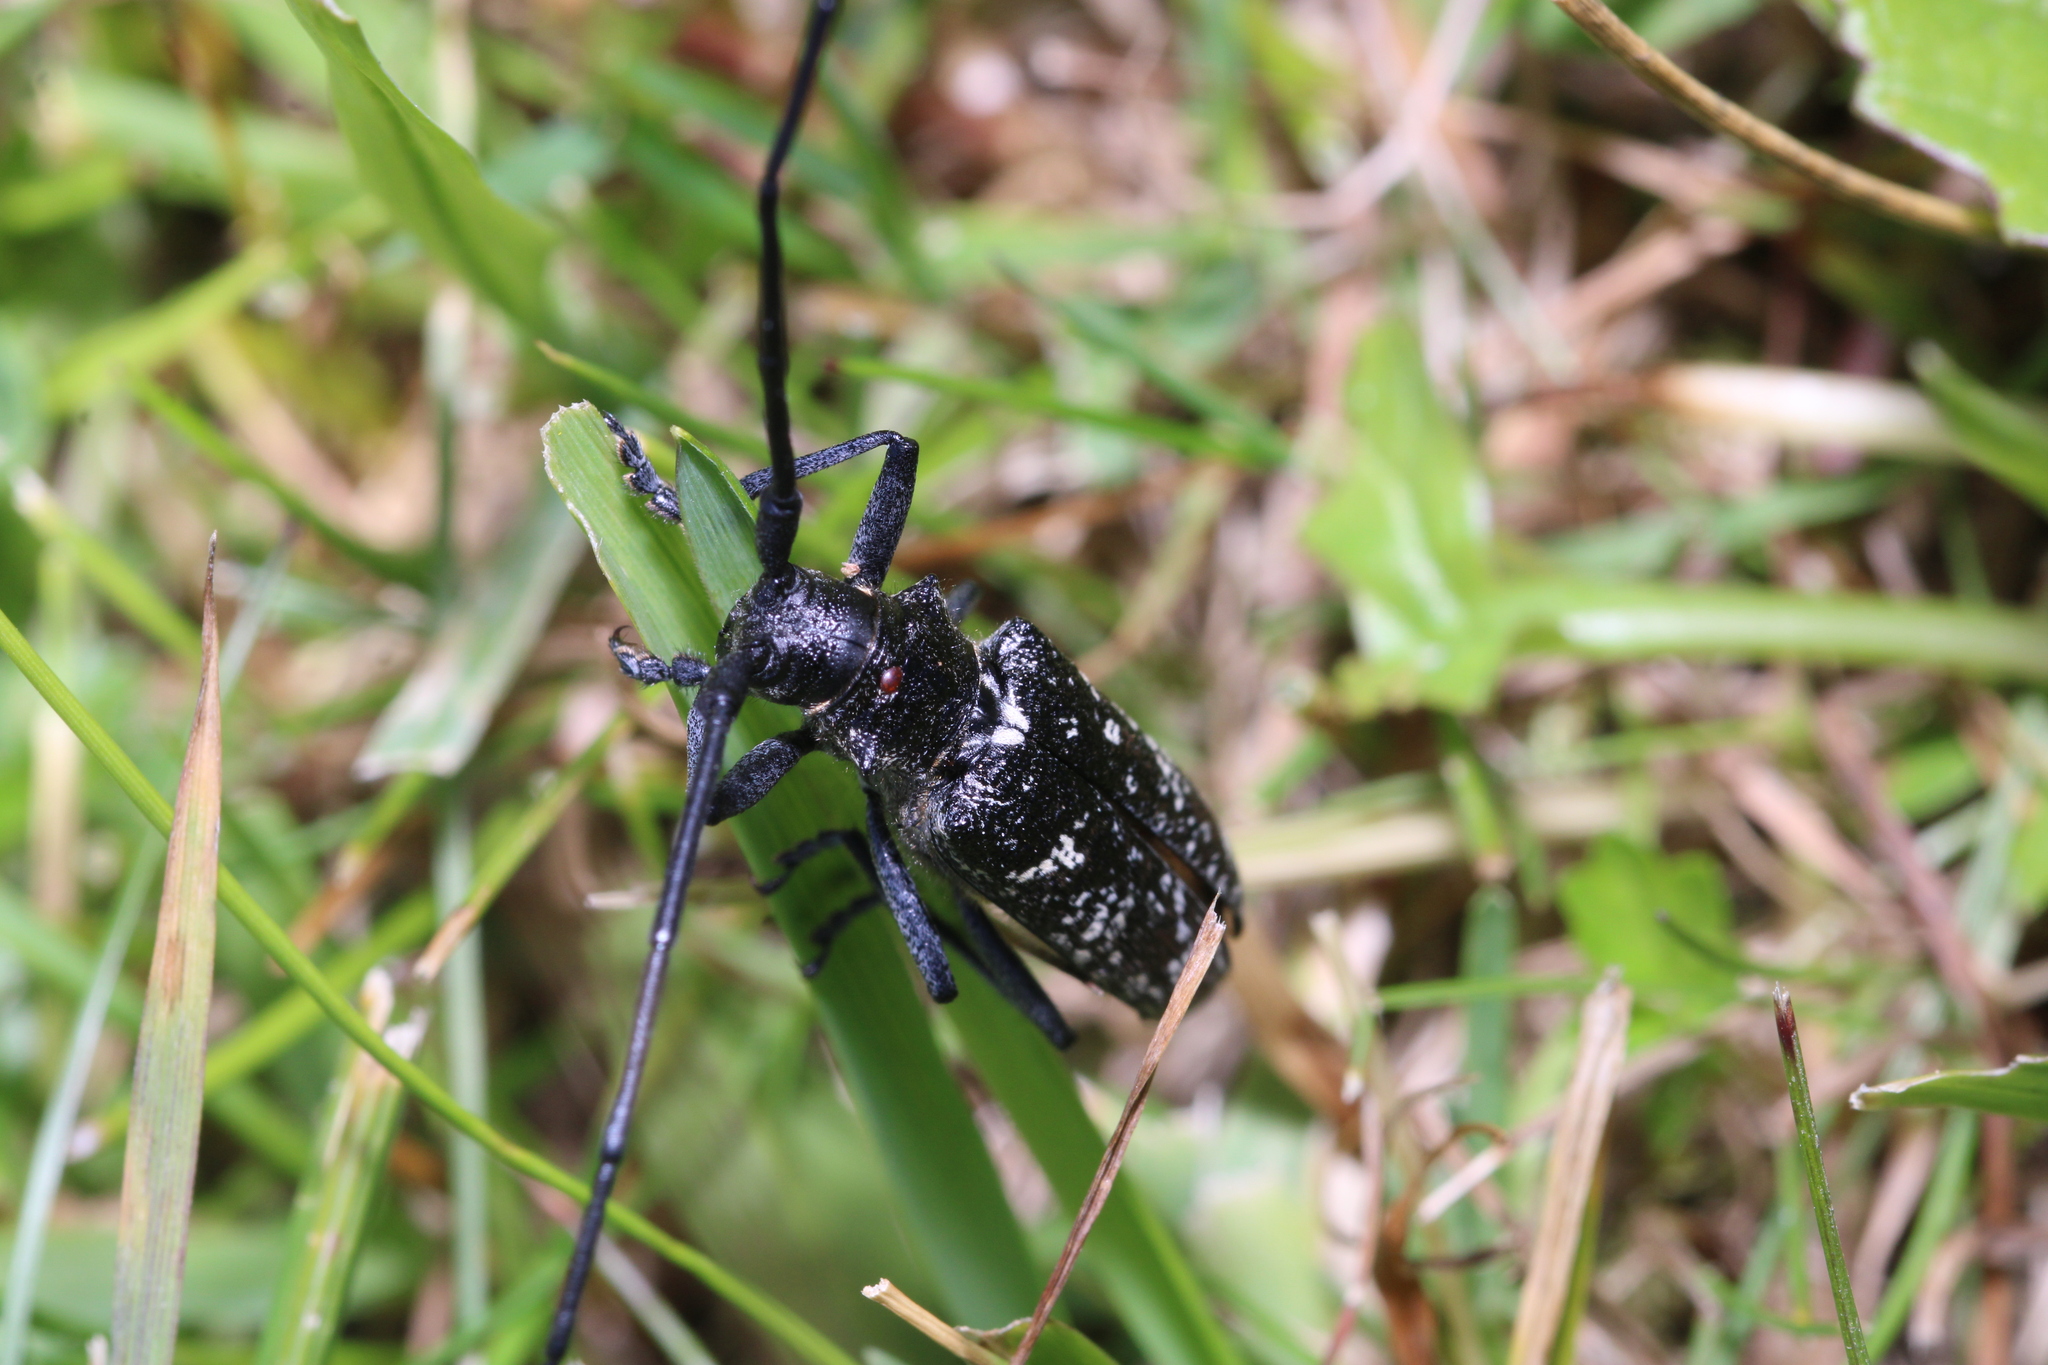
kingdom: Animalia
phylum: Arthropoda
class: Insecta
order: Coleoptera
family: Cerambycidae
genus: Monochamus
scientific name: Monochamus sutor
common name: Pine sawyer
